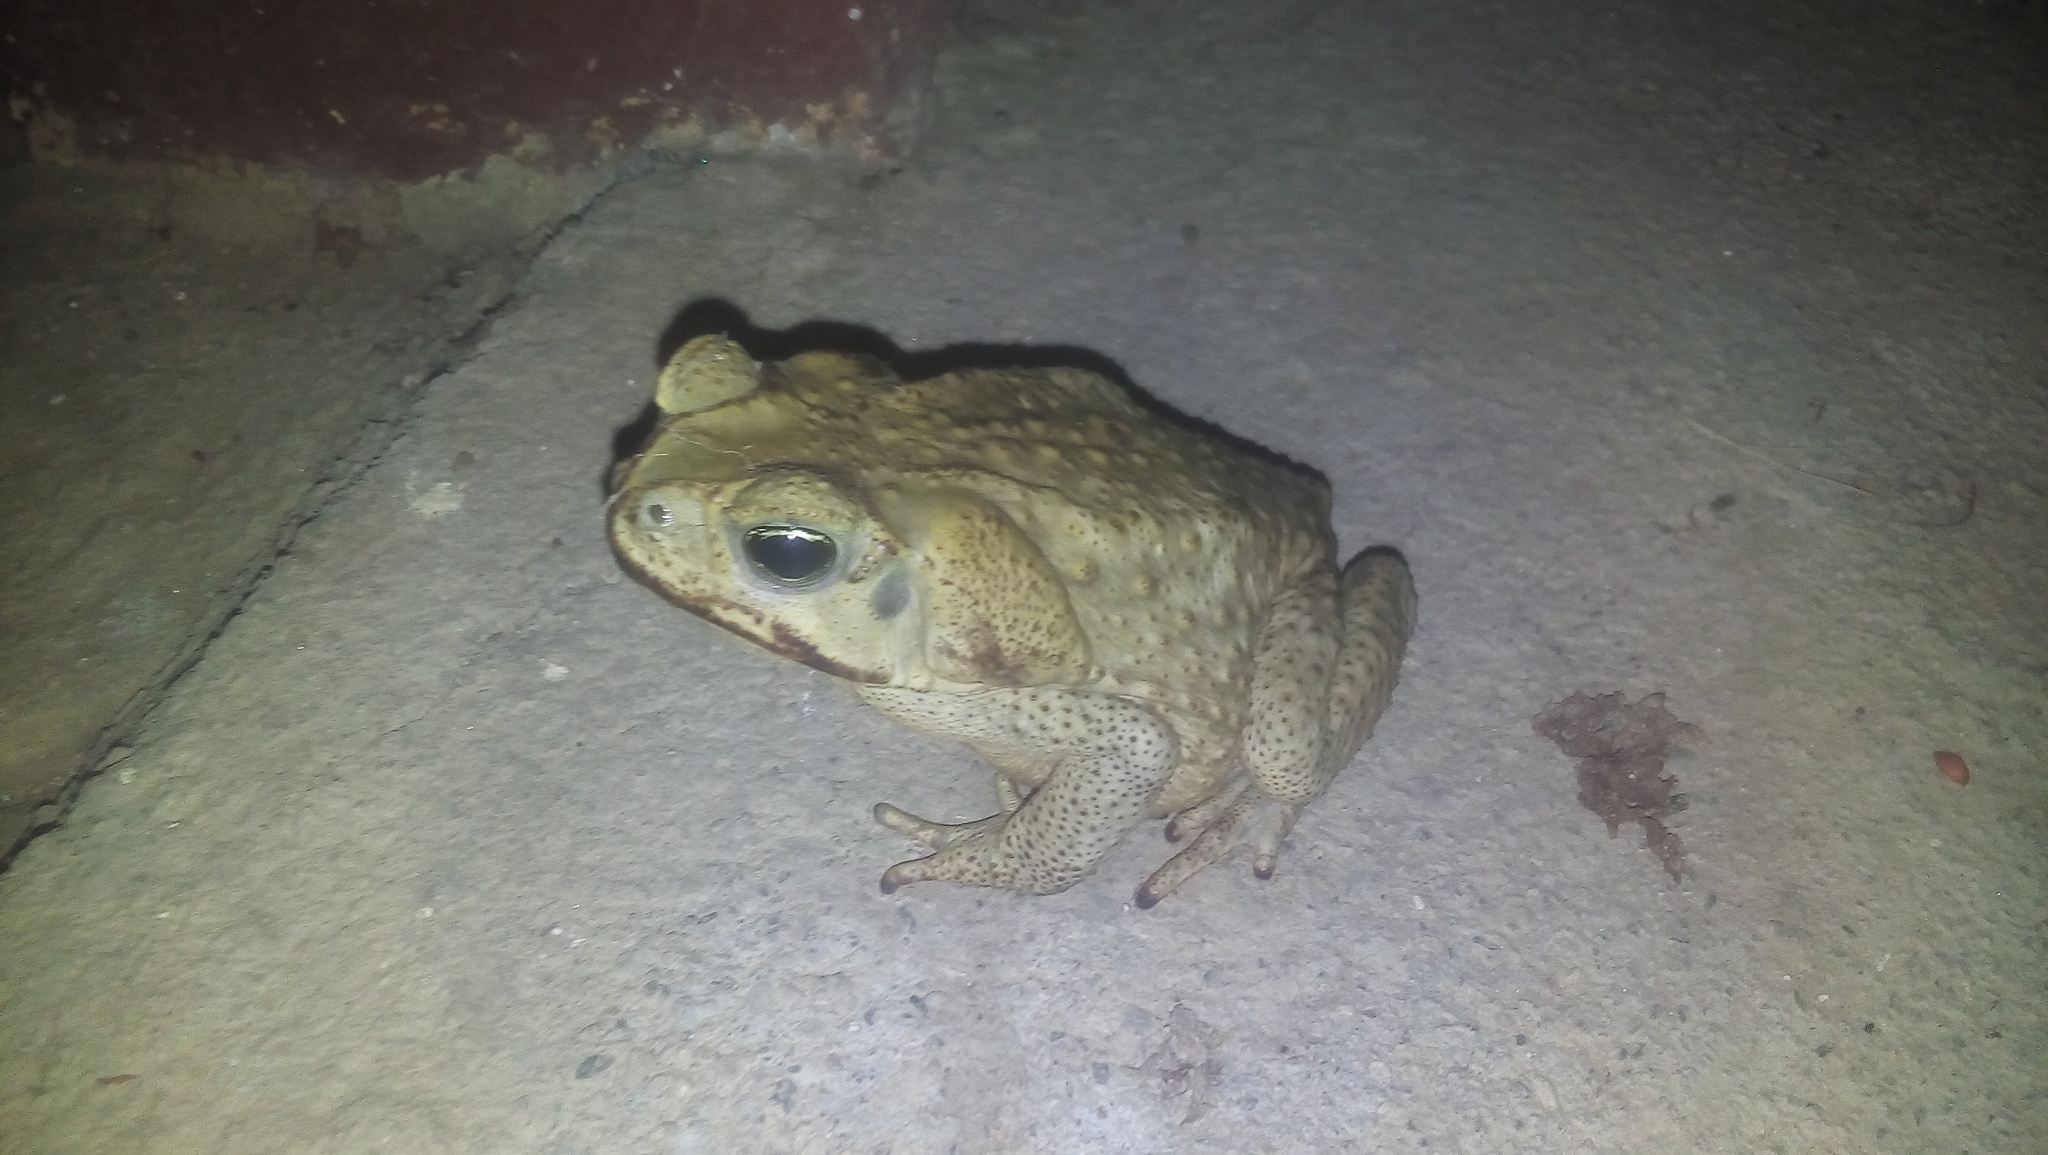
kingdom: Animalia
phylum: Chordata
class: Amphibia
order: Anura
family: Bufonidae
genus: Rhinella
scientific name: Rhinella horribilis
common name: Mesoamerican cane toad
